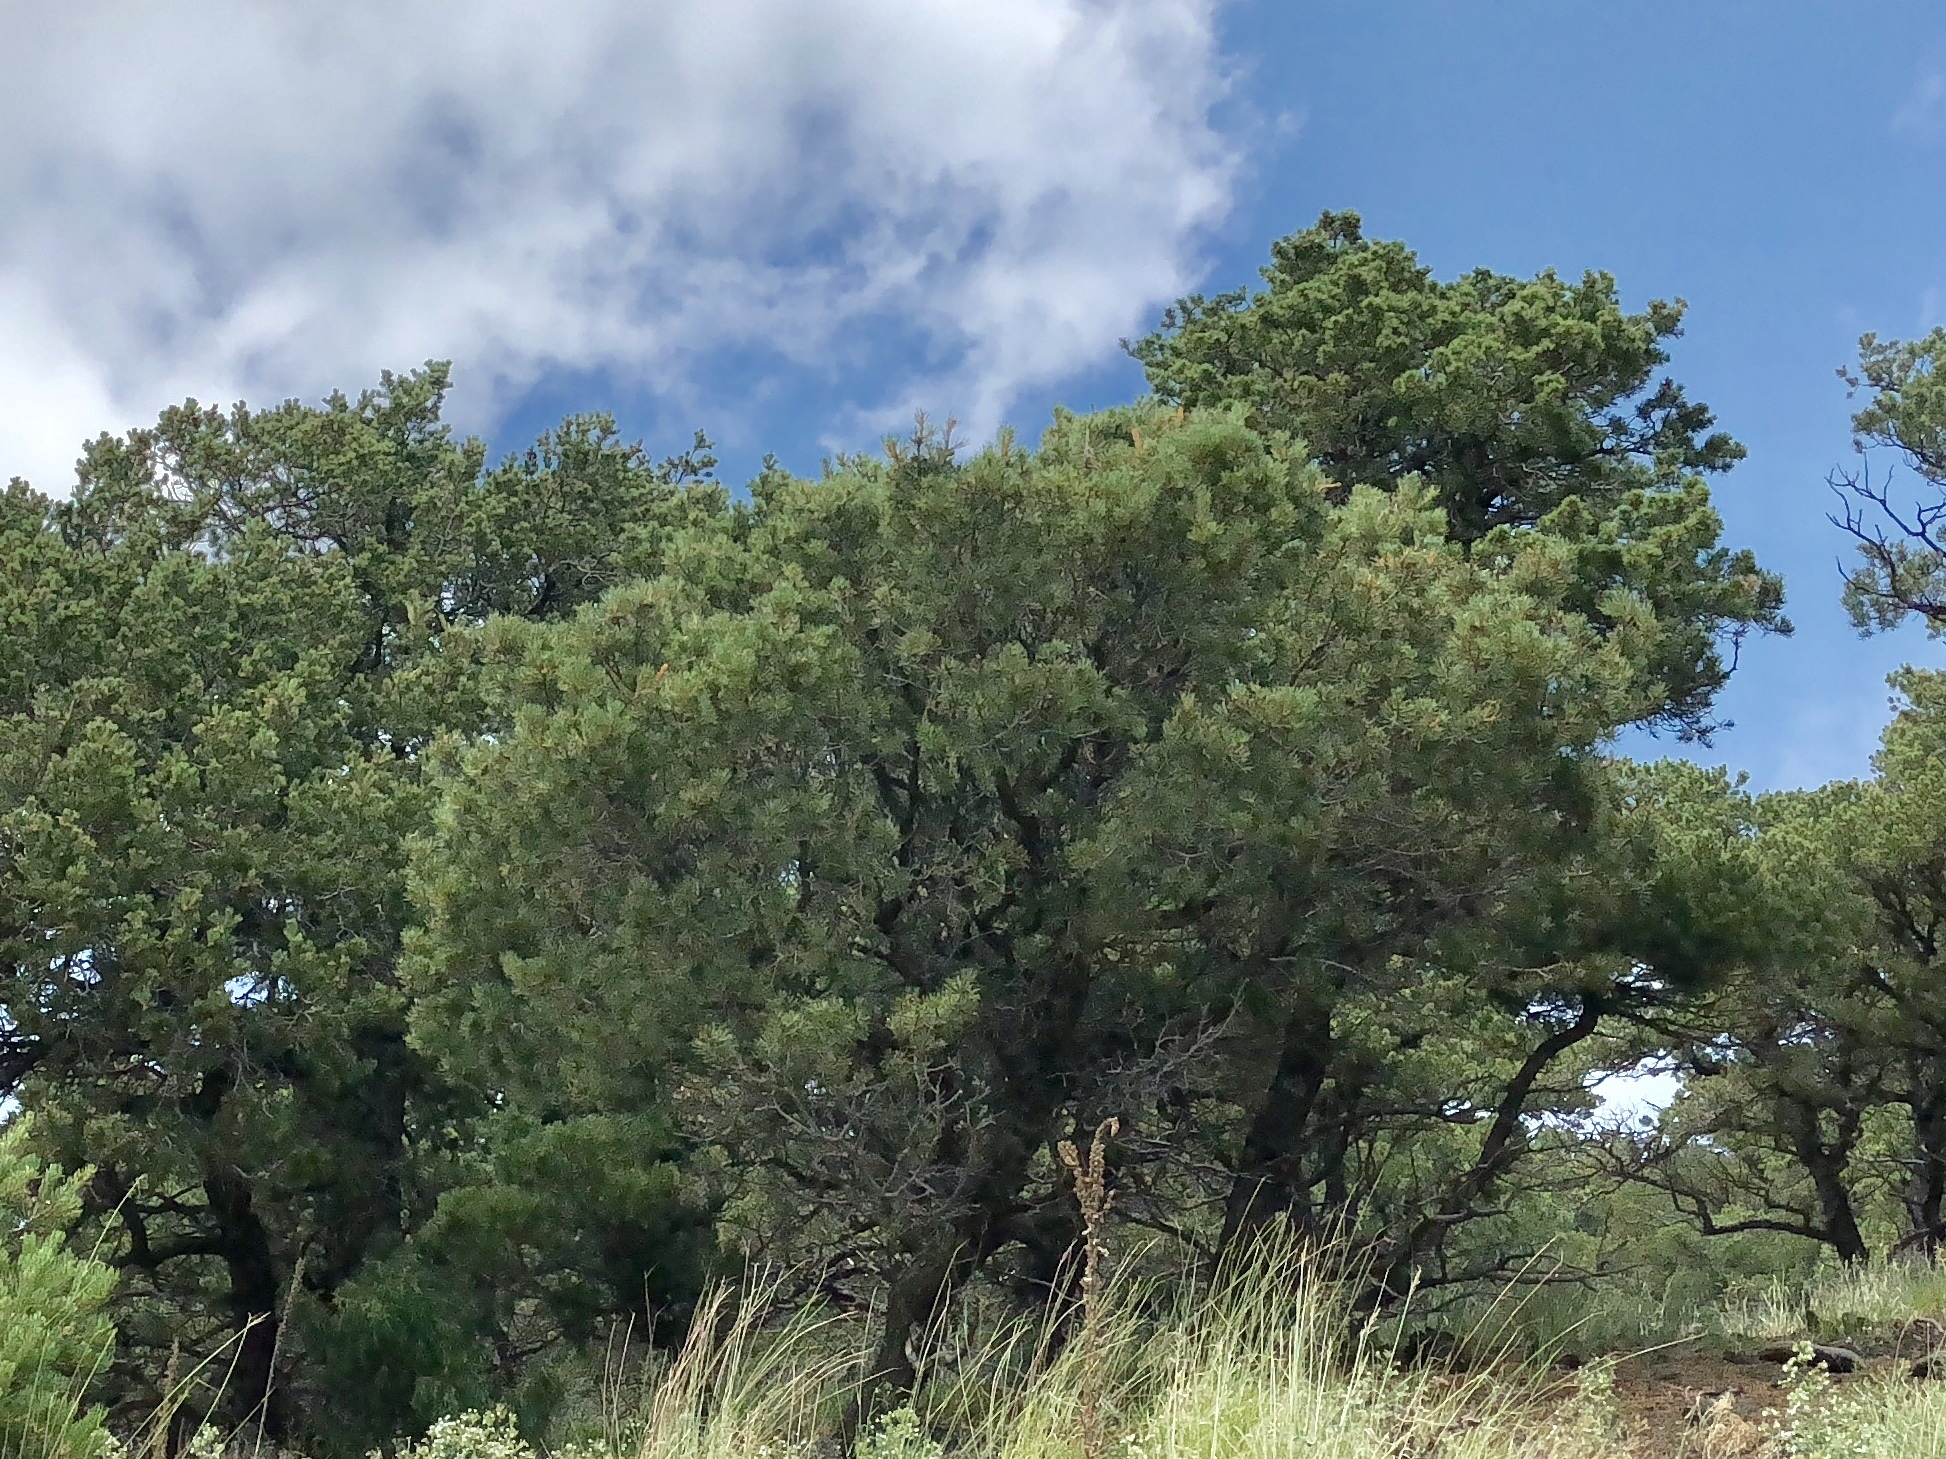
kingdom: Plantae
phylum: Tracheophyta
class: Pinopsida
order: Pinales
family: Pinaceae
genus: Pinus
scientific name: Pinus edulis
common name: Colorado pinyon
